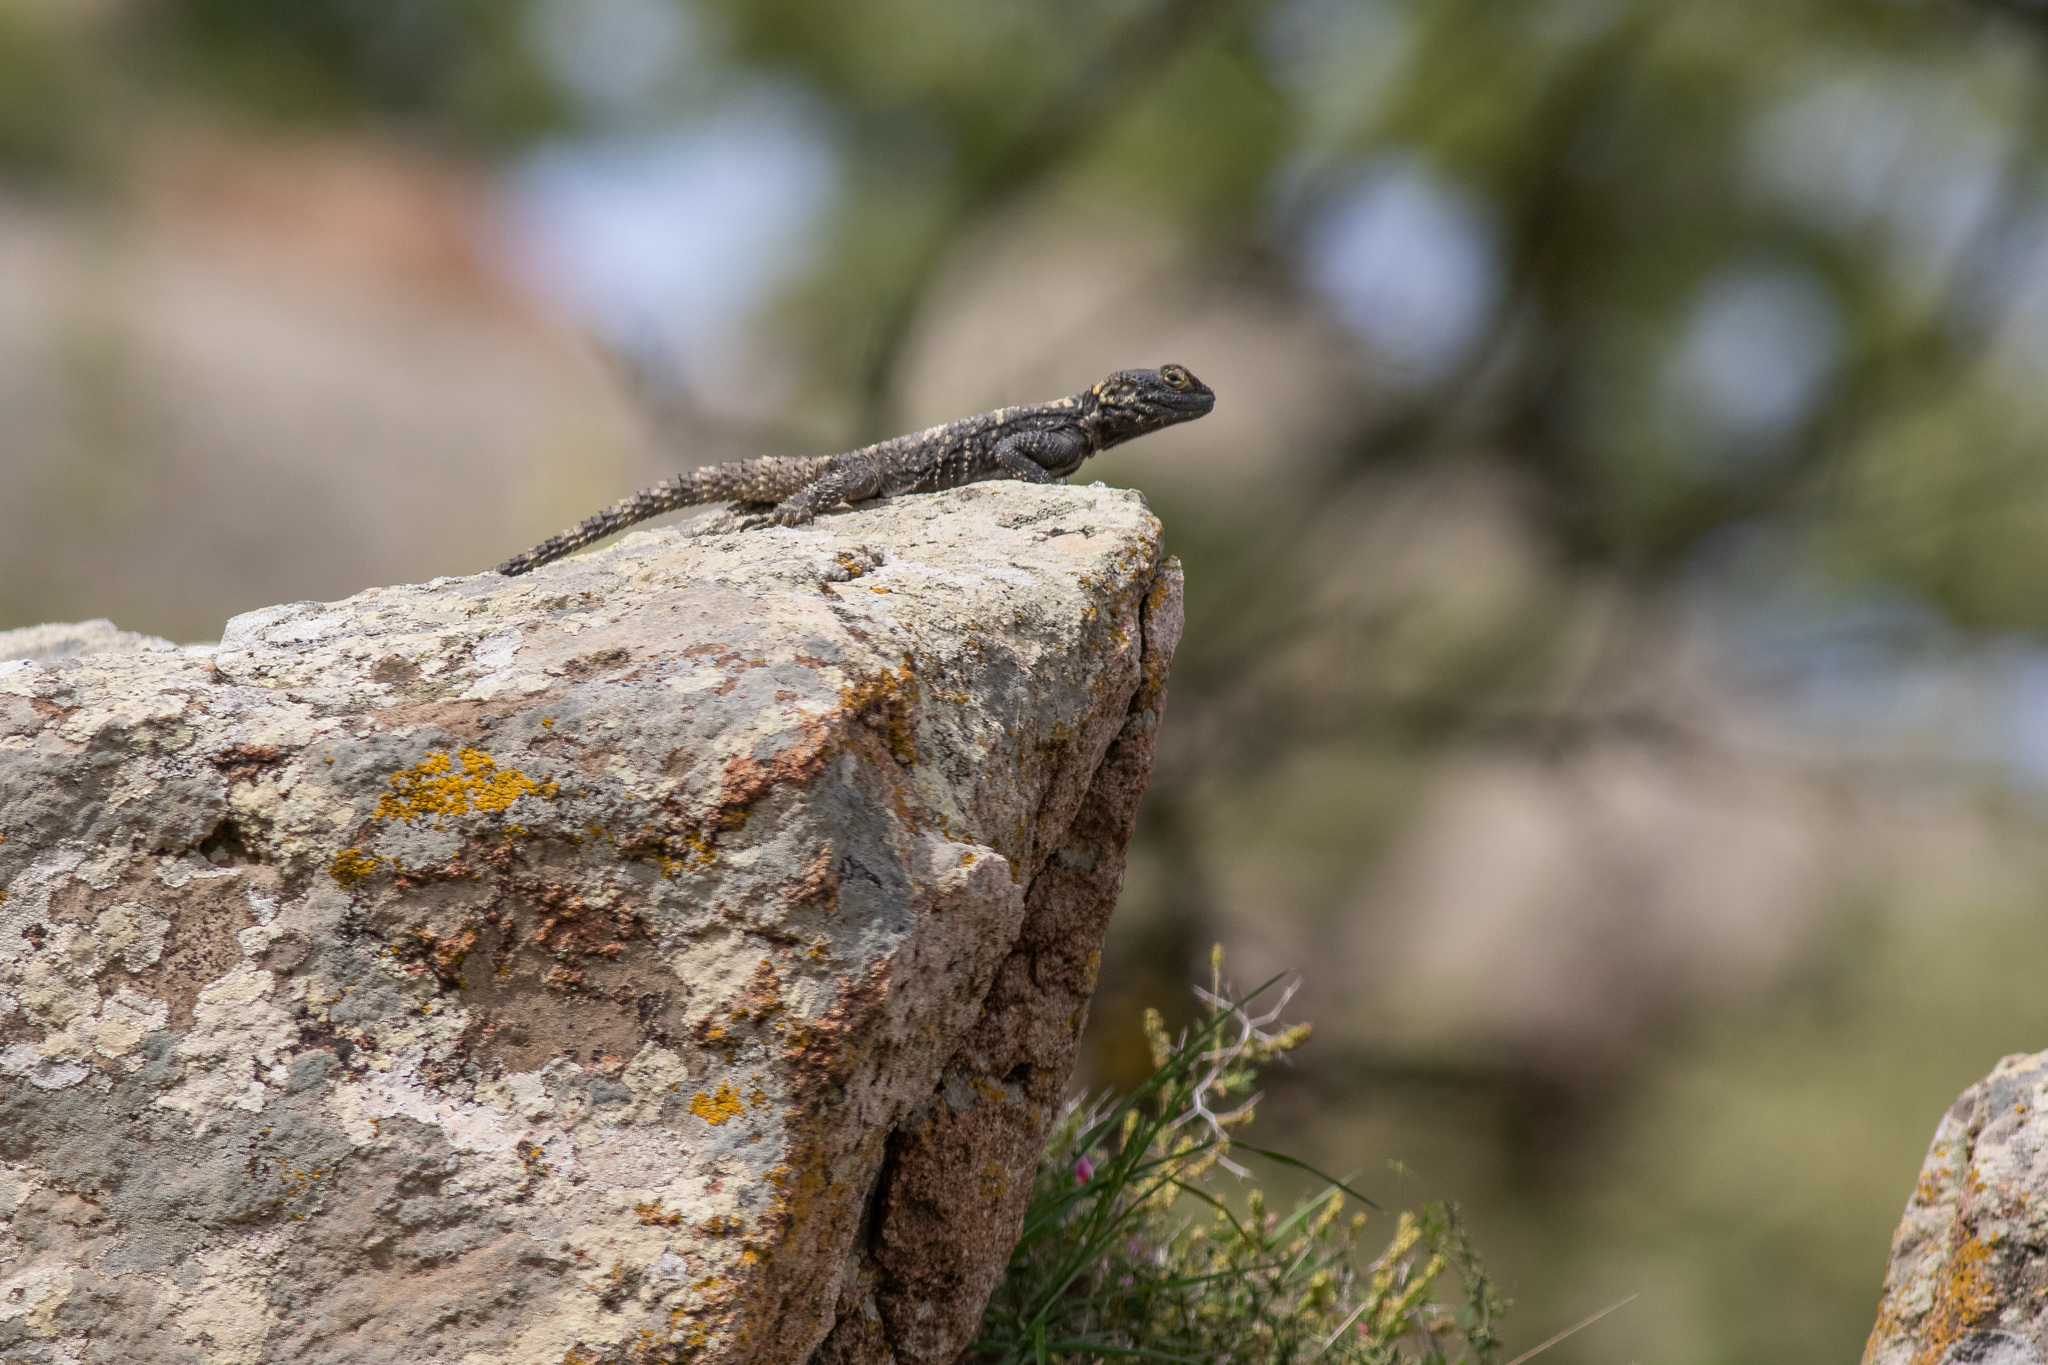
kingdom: Animalia
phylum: Chordata
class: Squamata
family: Agamidae
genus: Stellagama
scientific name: Stellagama stellio
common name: Starred agama
